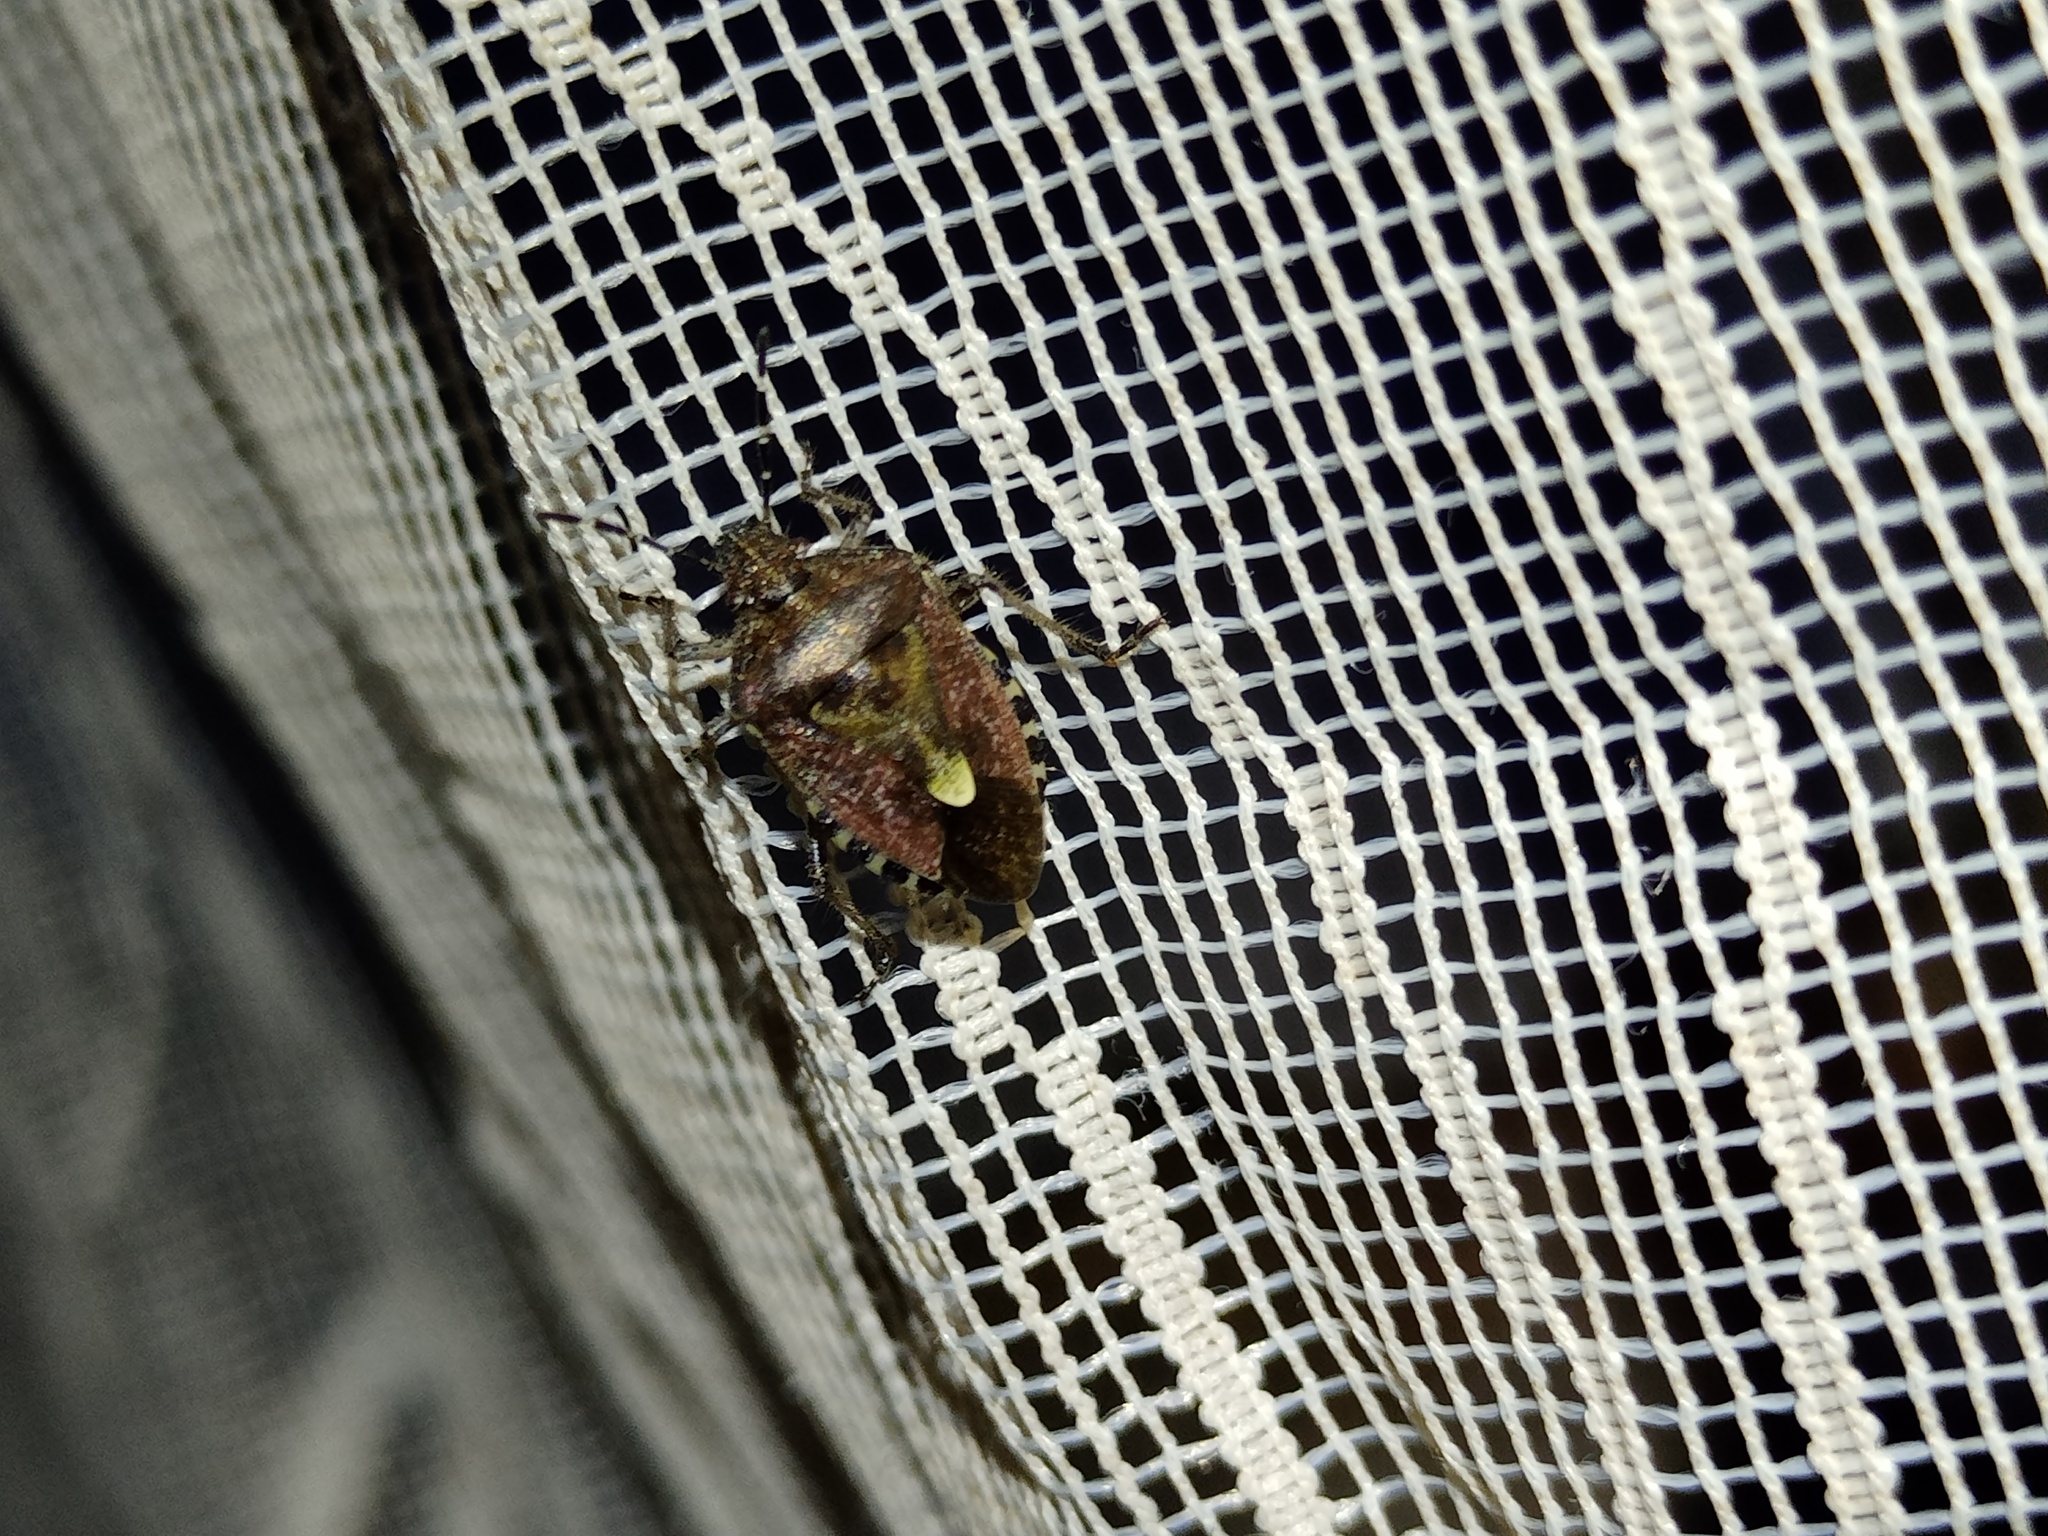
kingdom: Animalia
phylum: Arthropoda
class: Insecta
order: Hemiptera
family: Pentatomidae
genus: Dolycoris
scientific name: Dolycoris baccarum
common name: Sloe bug
